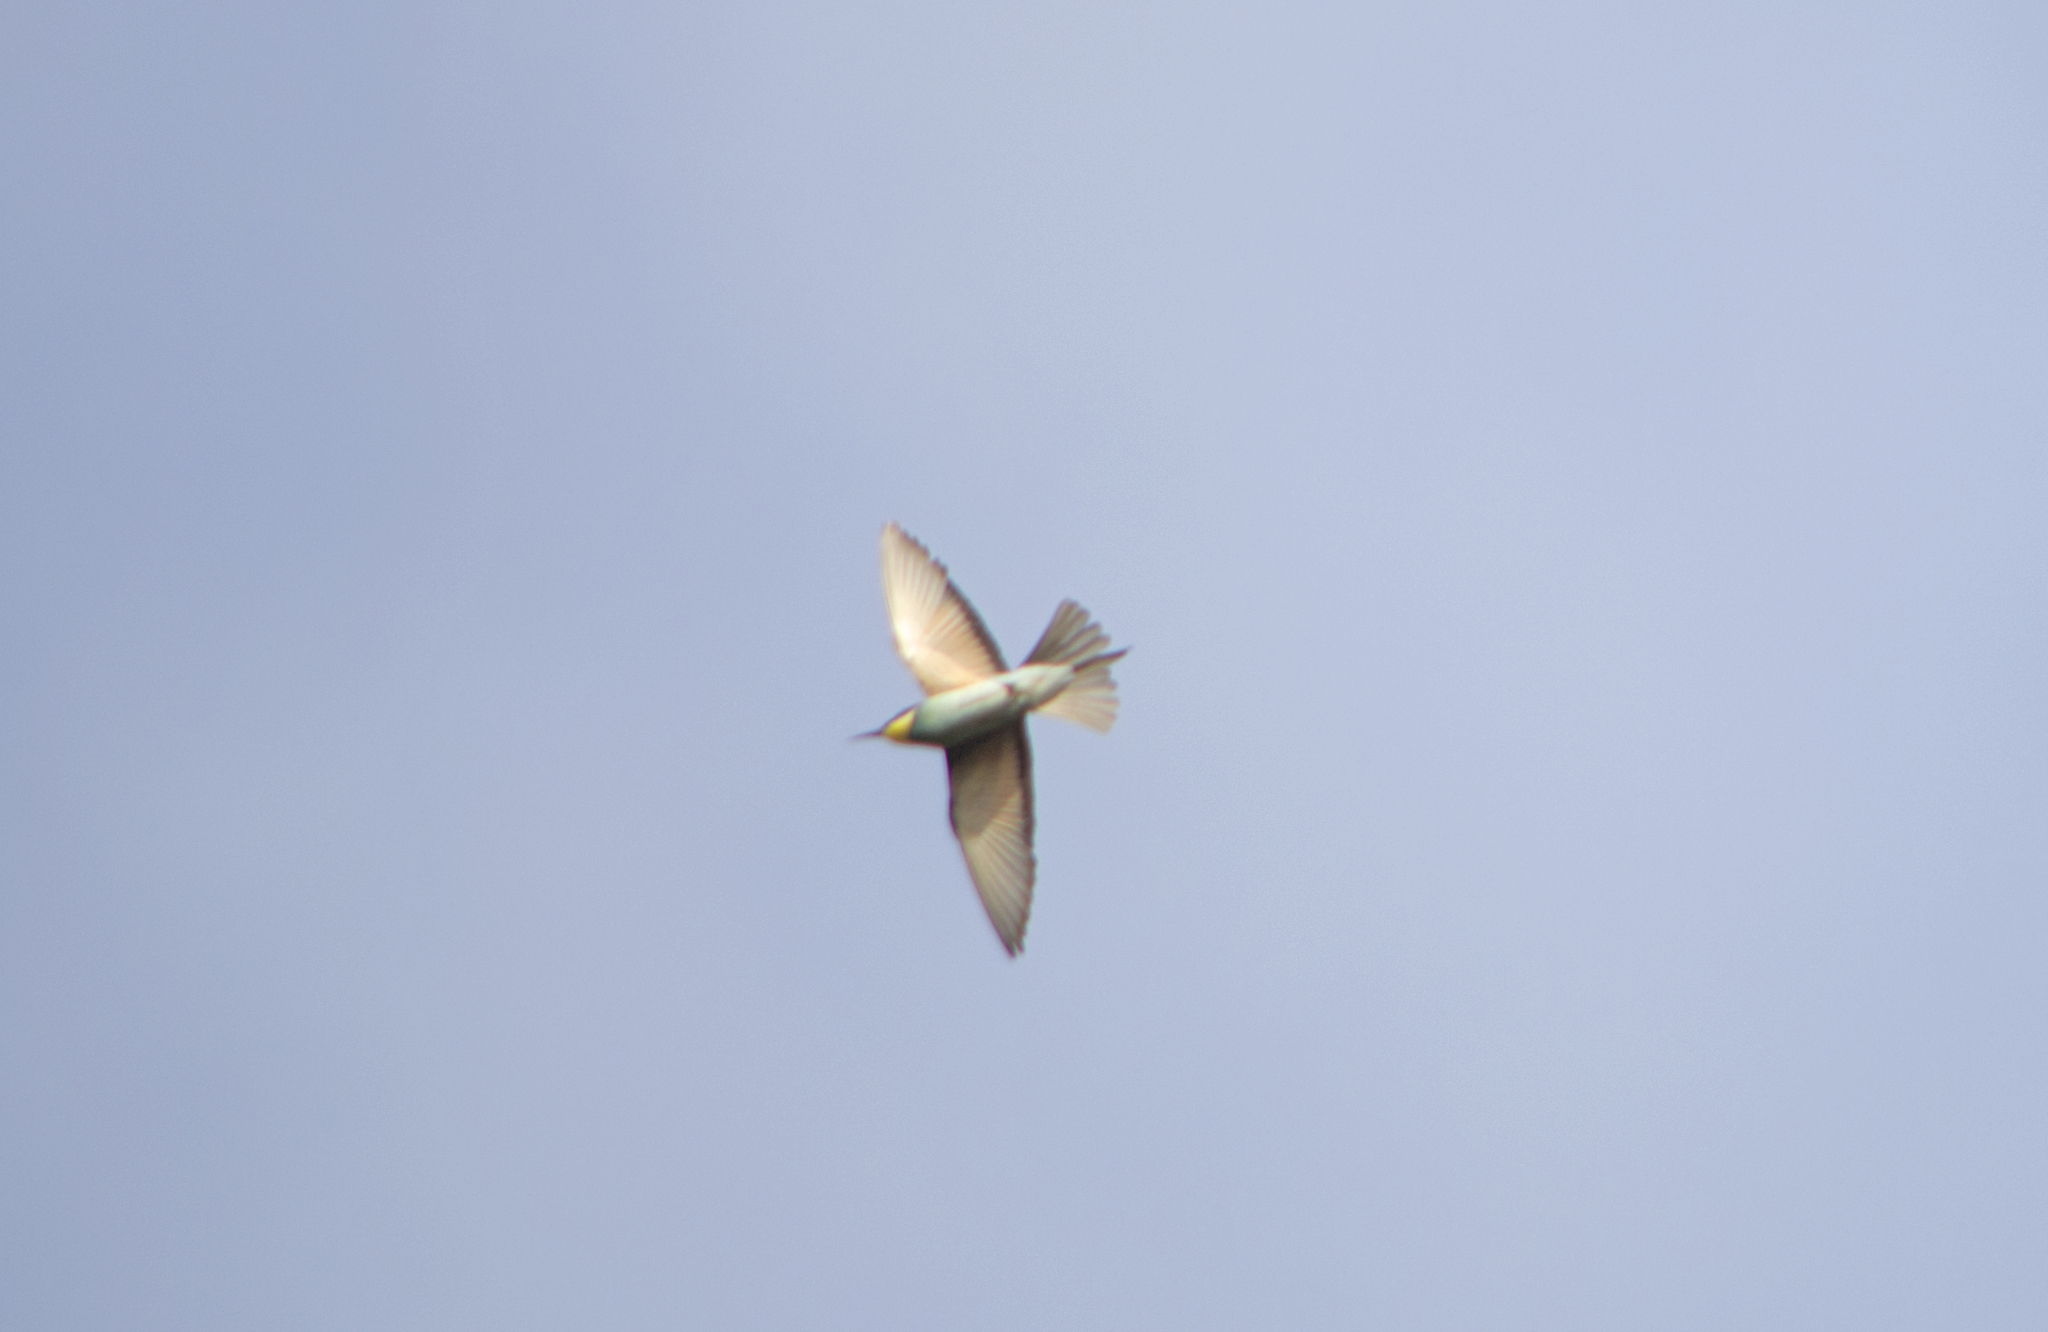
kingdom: Animalia
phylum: Chordata
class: Aves
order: Coraciiformes
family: Meropidae
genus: Merops
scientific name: Merops apiaster
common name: European bee-eater
